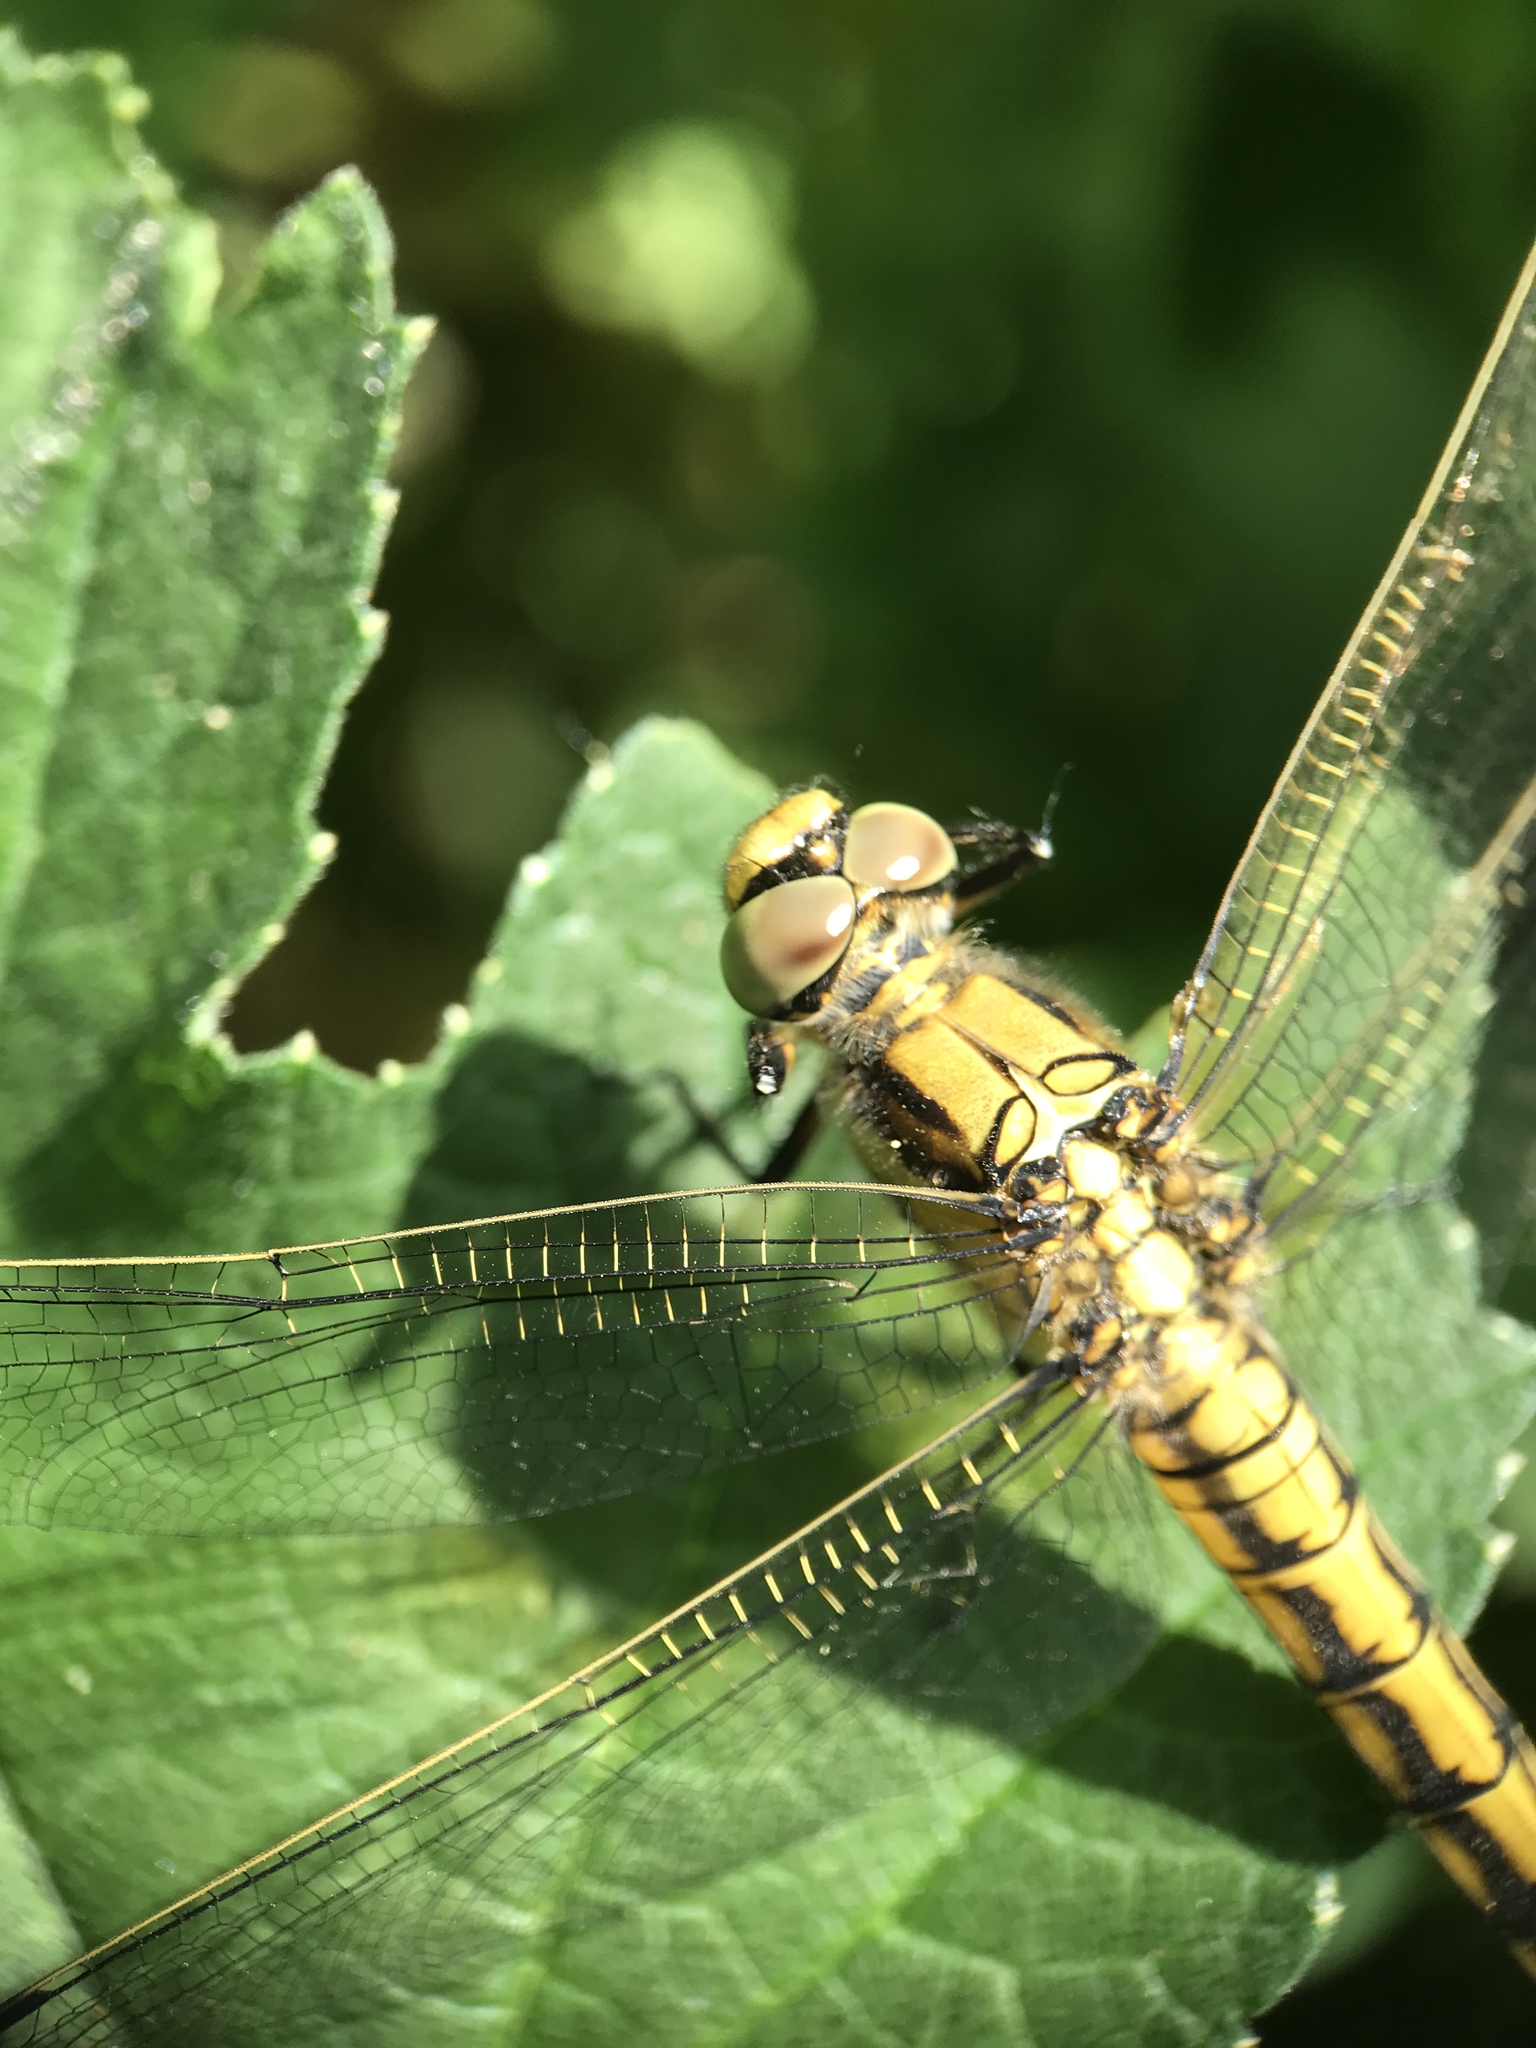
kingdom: Animalia
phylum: Arthropoda
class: Insecta
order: Odonata
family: Libellulidae
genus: Orthetrum
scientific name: Orthetrum cancellatum
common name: Black-tailed skimmer
